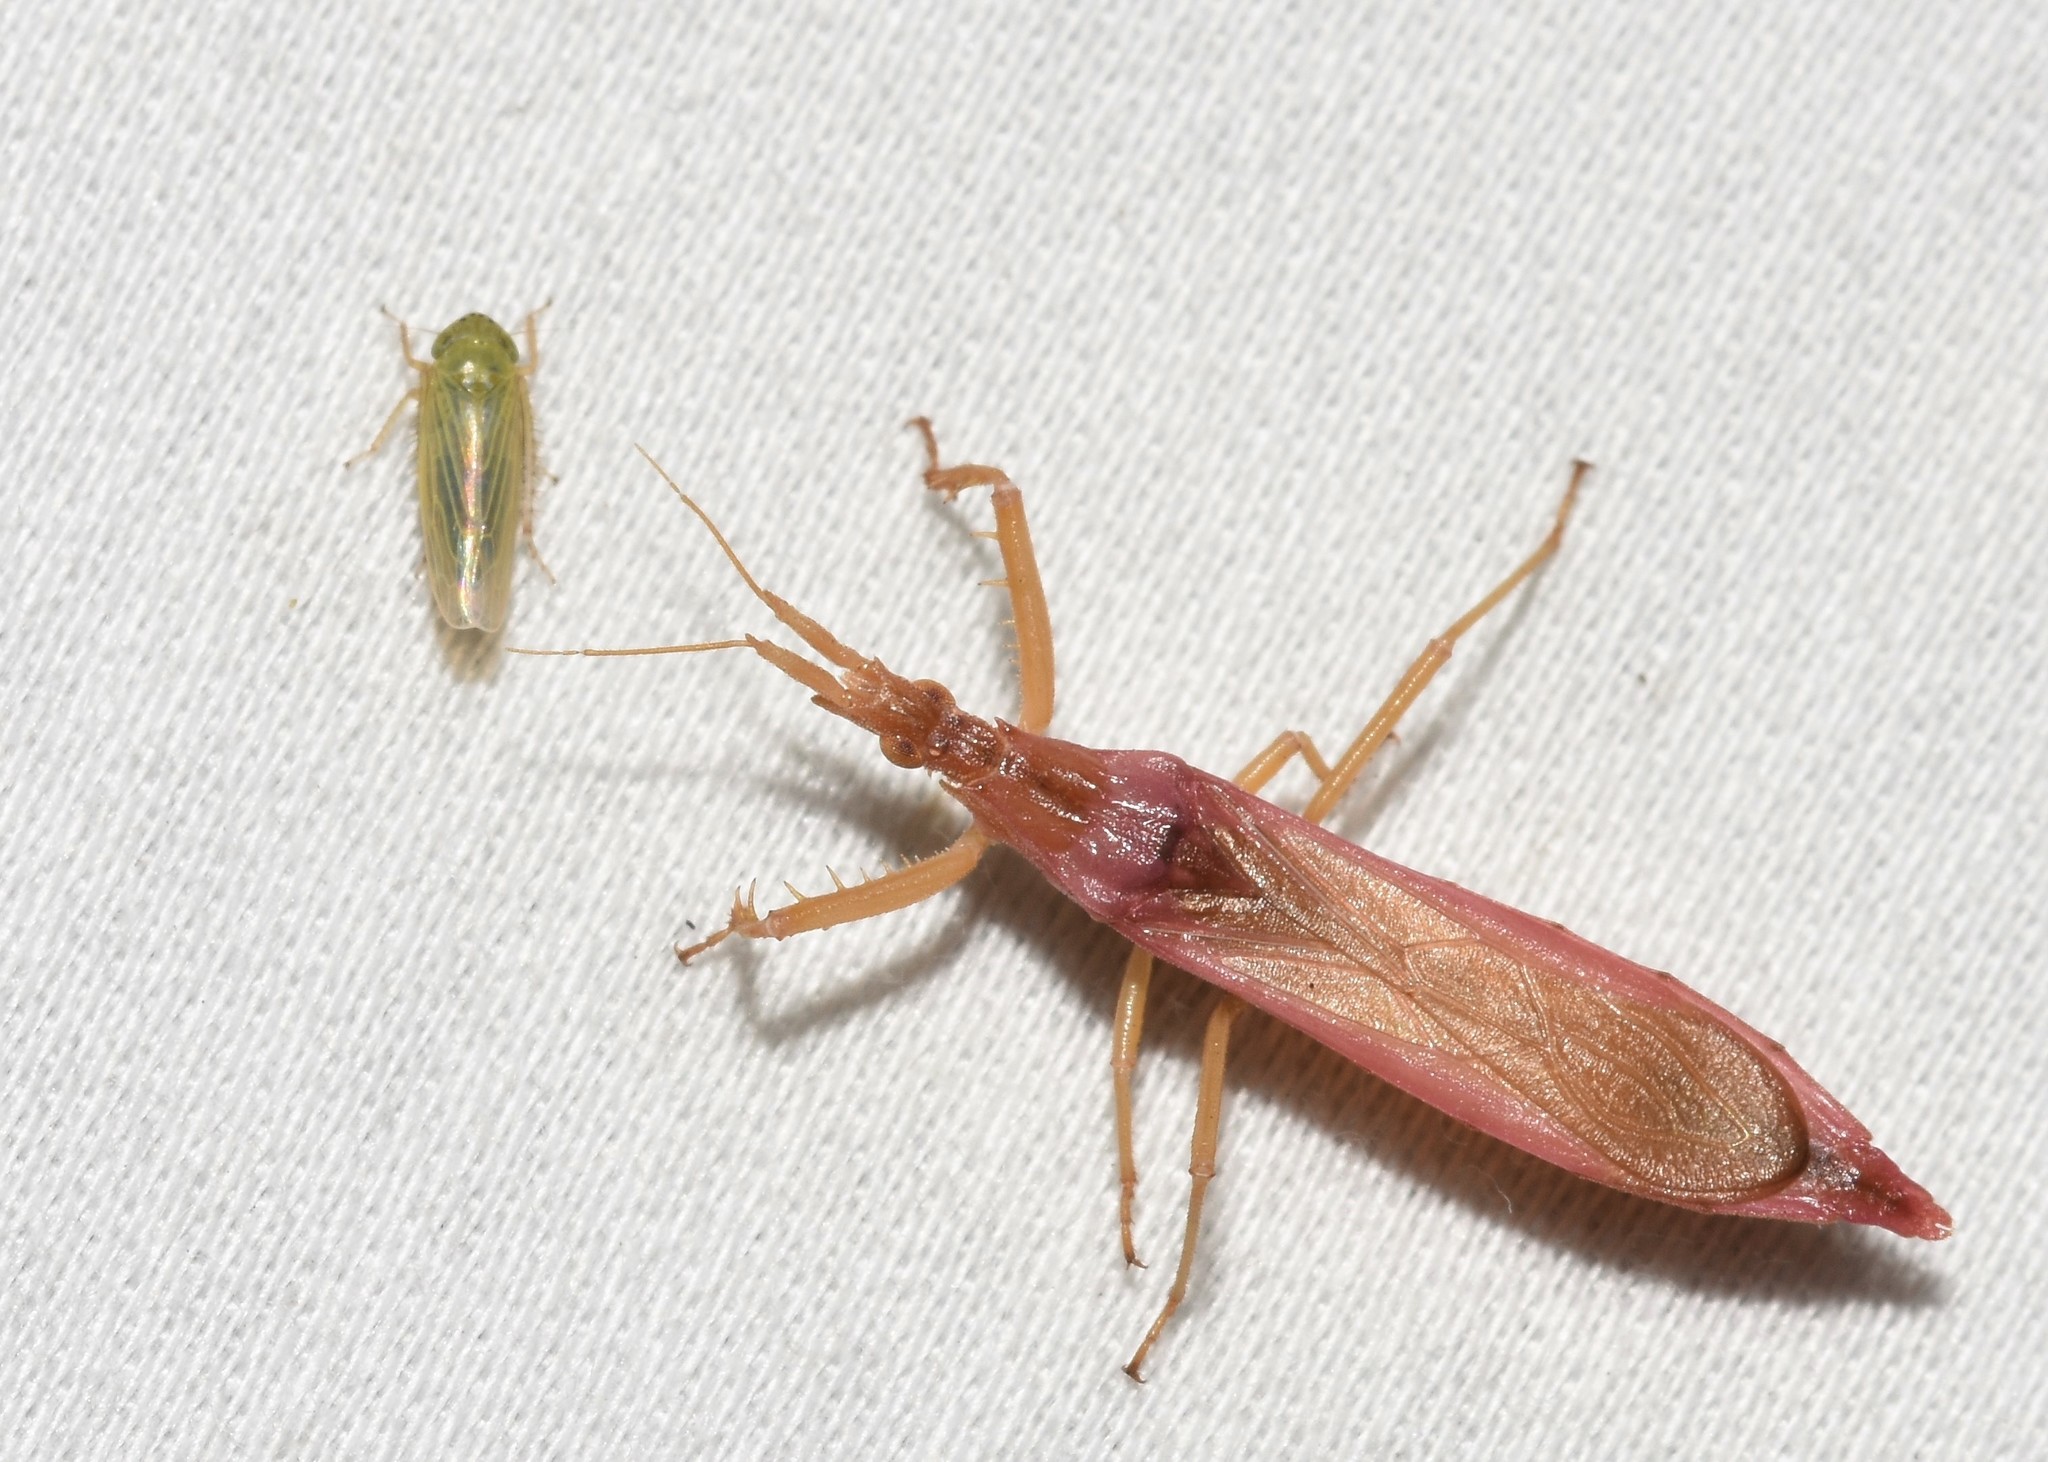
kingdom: Animalia
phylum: Arthropoda
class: Insecta
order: Hemiptera
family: Reduviidae
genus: Pnirontis
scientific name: Pnirontis languida
